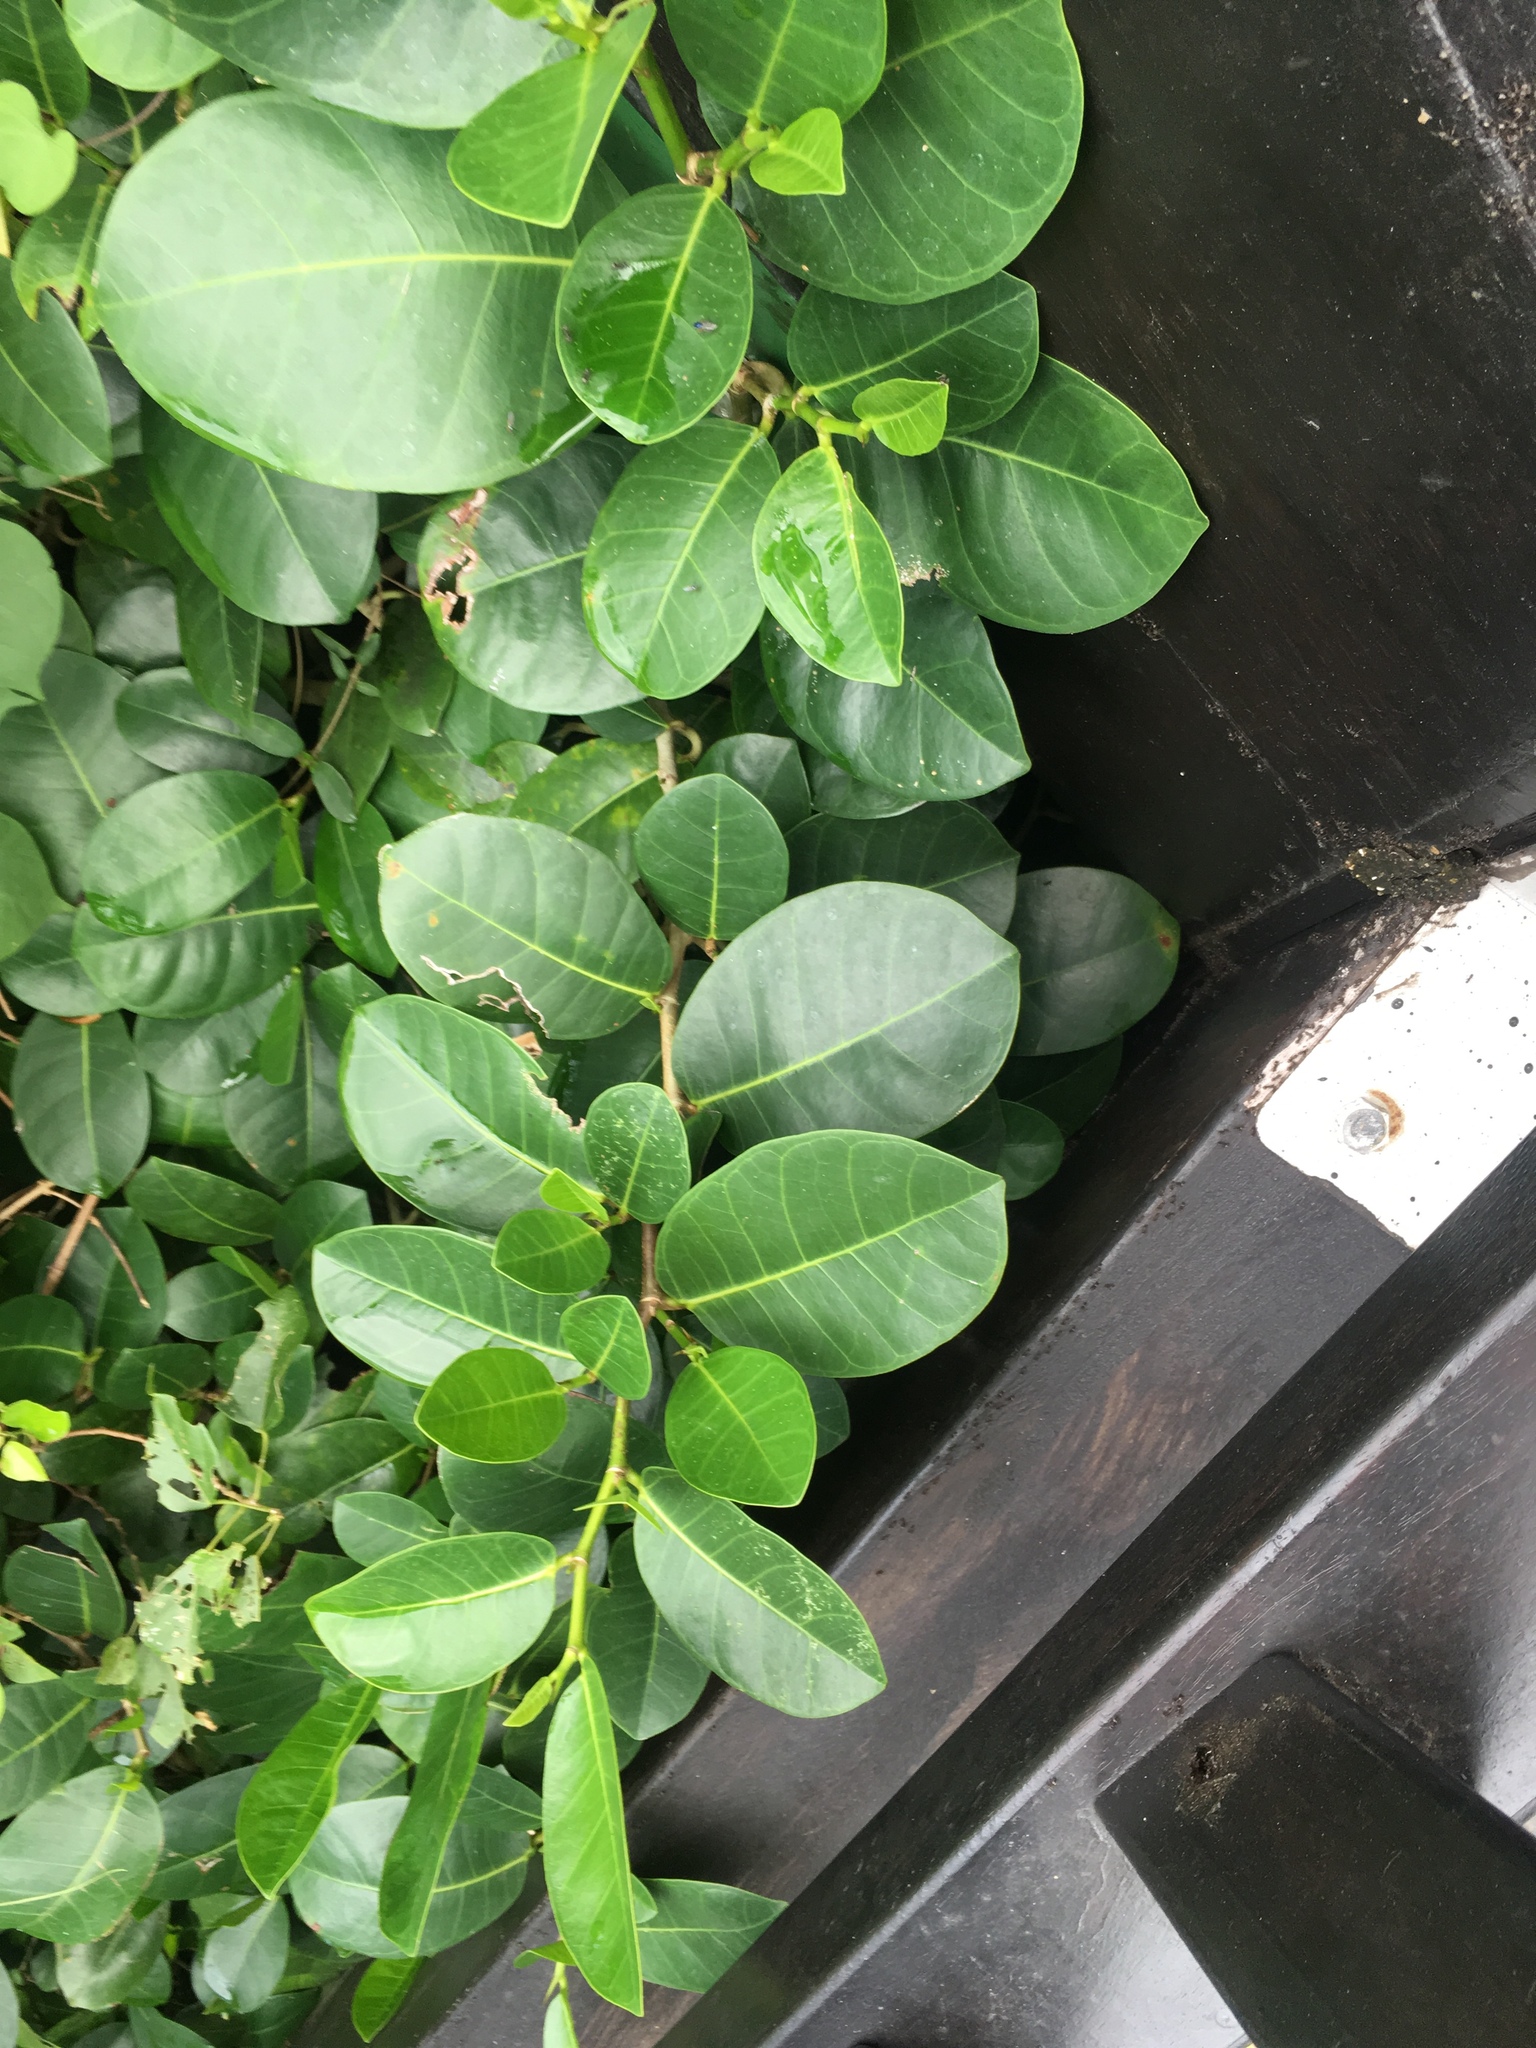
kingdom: Plantae
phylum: Tracheophyta
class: Magnoliopsida
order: Rosales
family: Moraceae
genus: Ficus
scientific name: Ficus tinctoria
